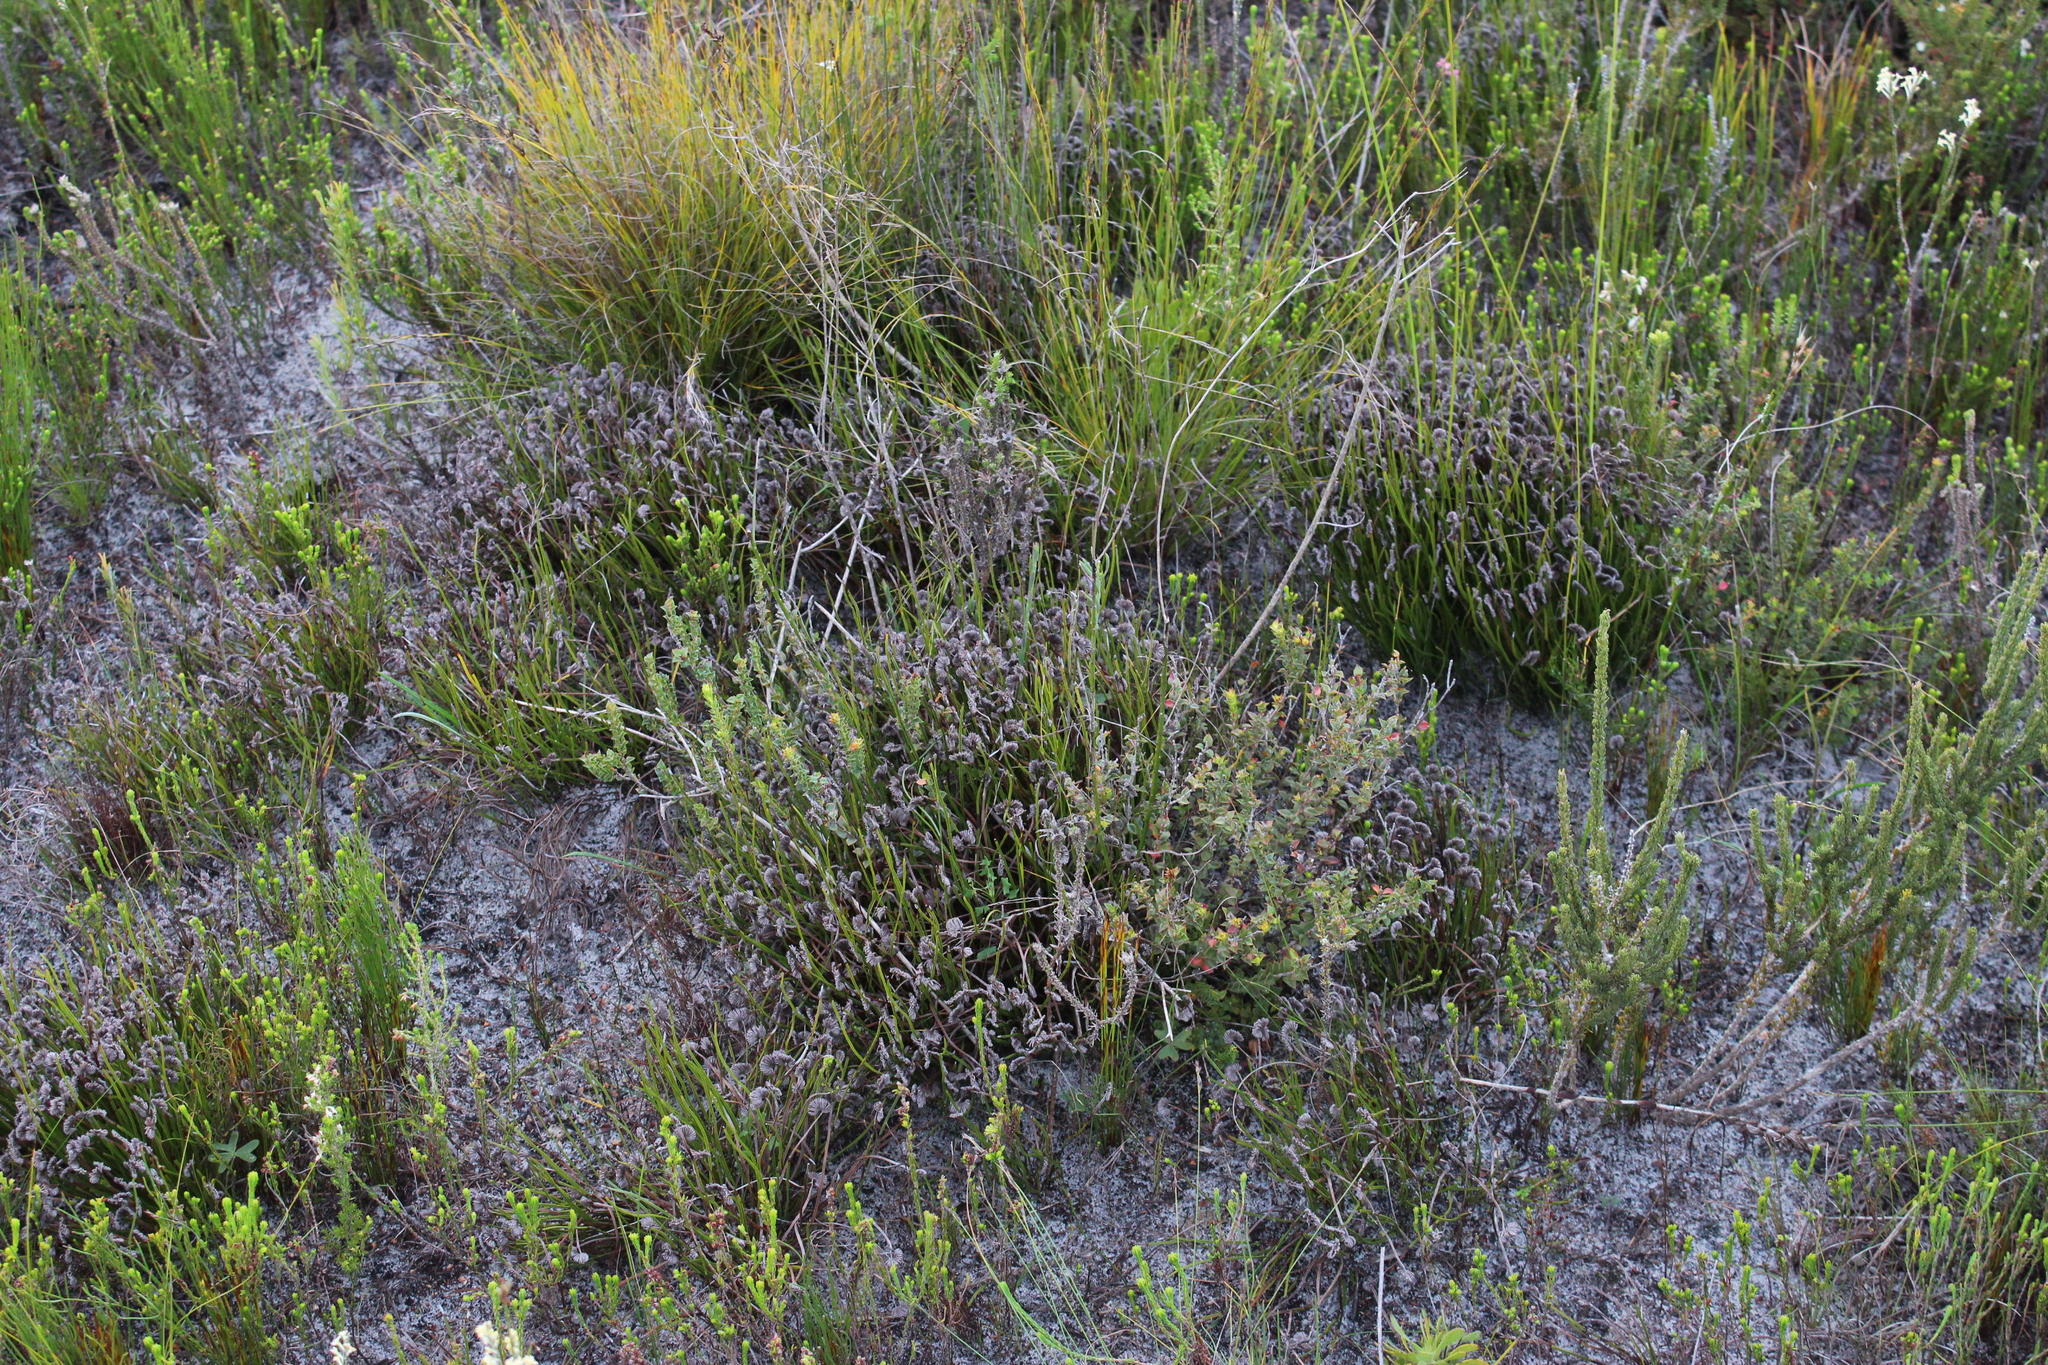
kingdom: Plantae
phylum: Tracheophyta
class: Polypodiopsida
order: Schizaeales
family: Schizaeaceae
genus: Schizaea
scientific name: Schizaea pectinata
